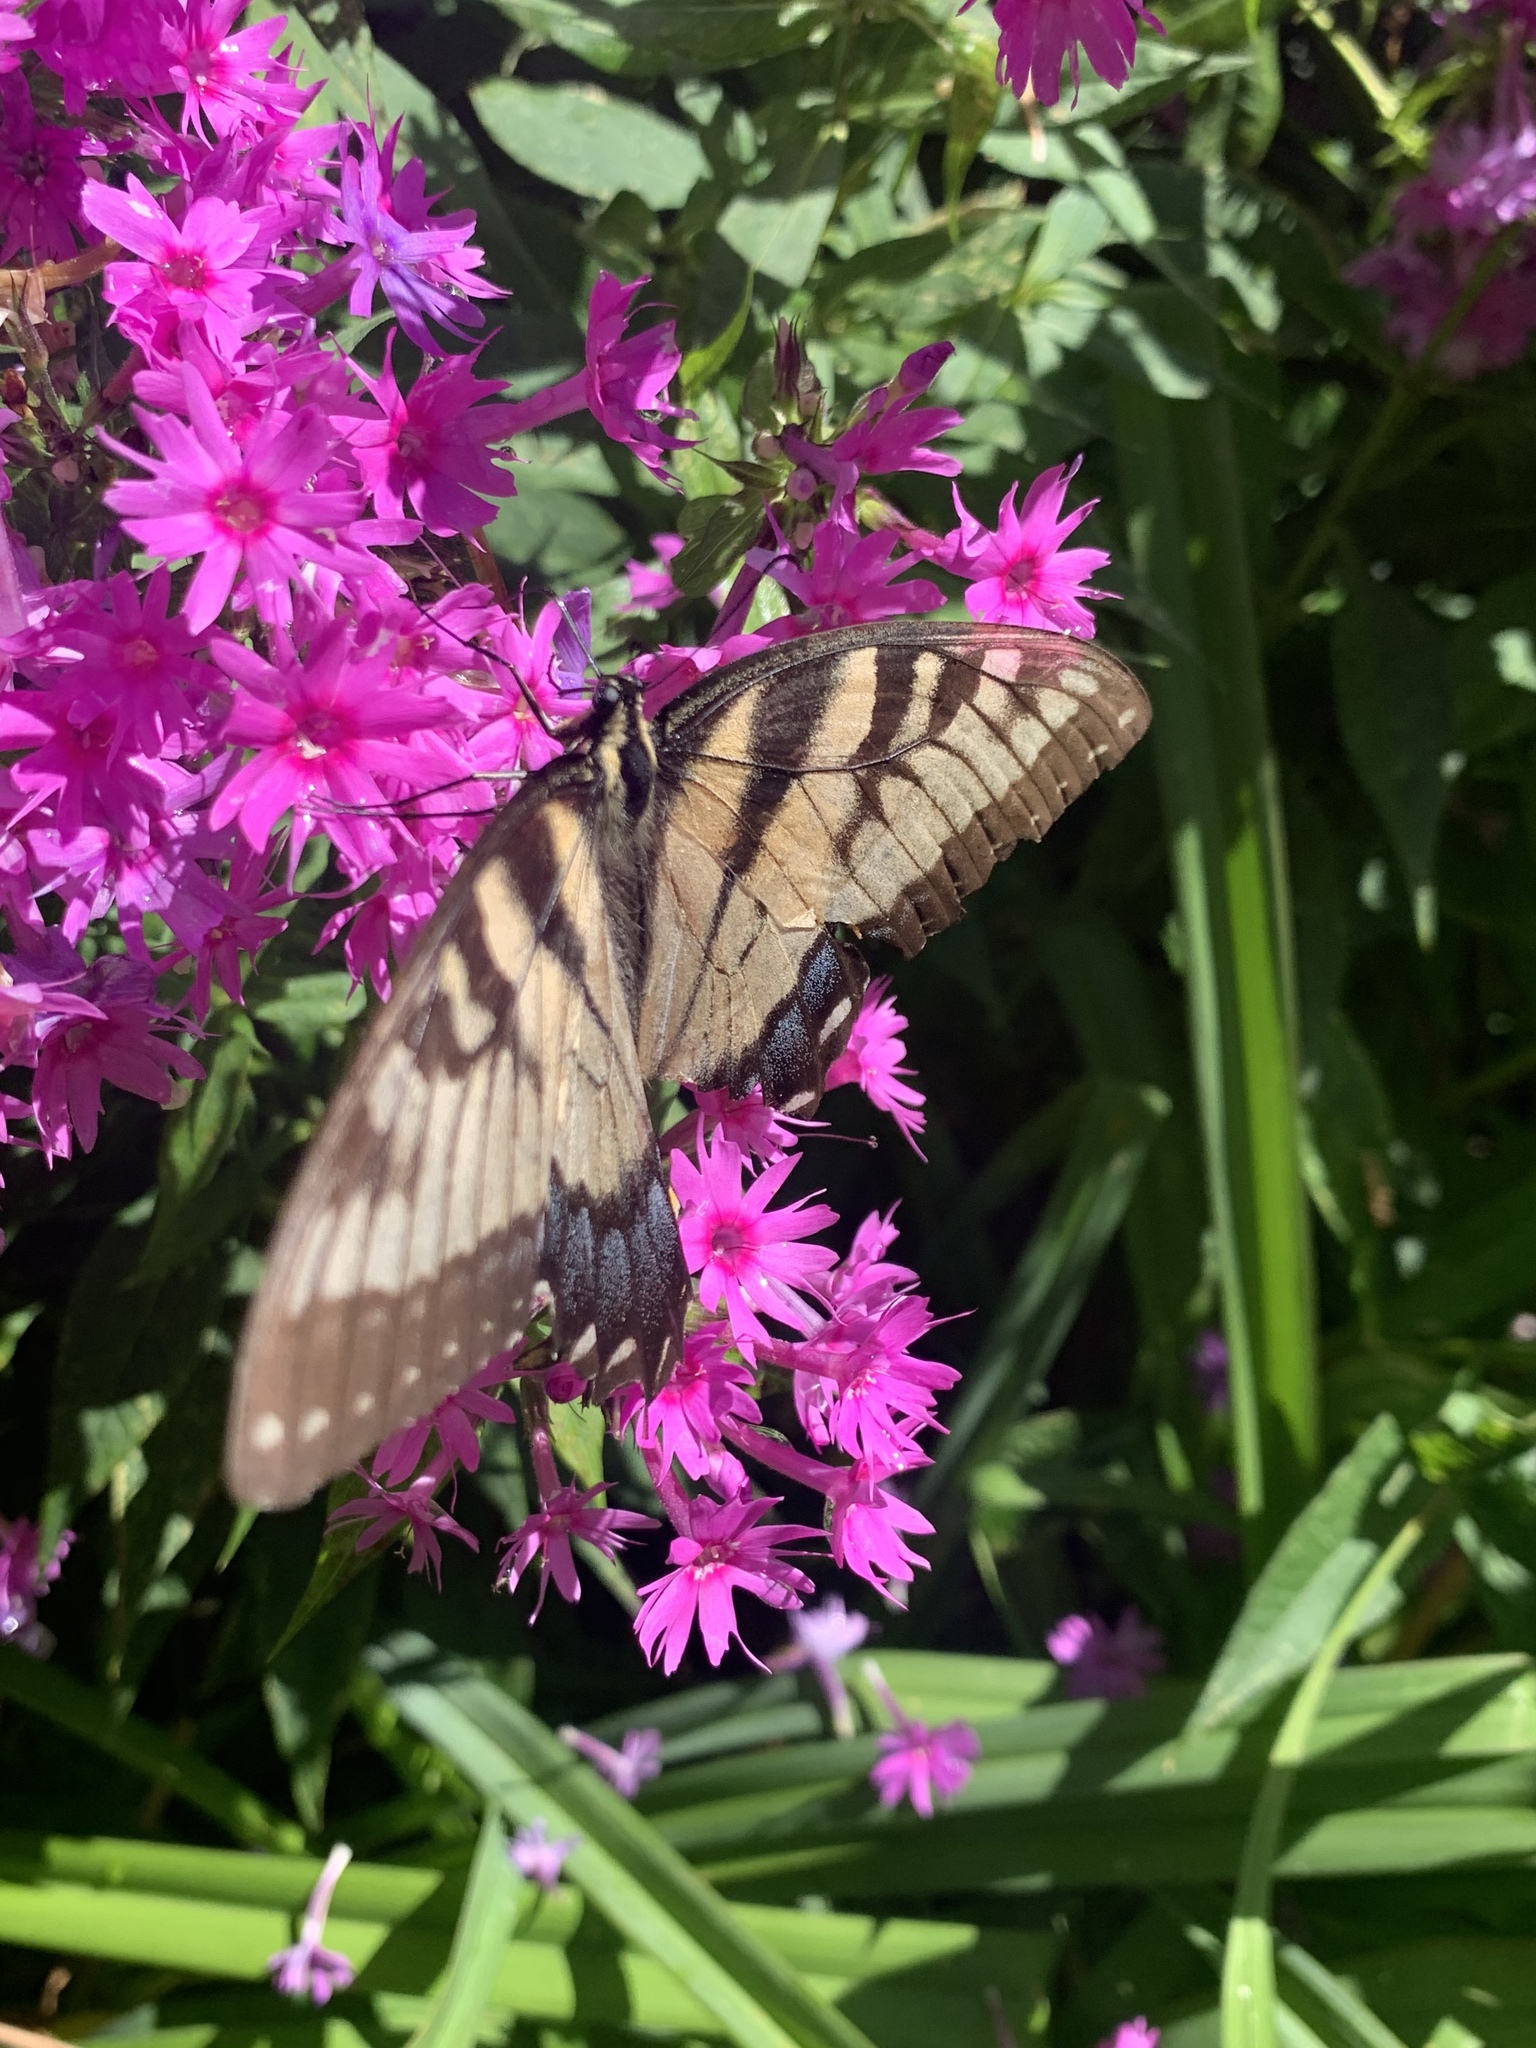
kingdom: Animalia
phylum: Arthropoda
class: Insecta
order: Lepidoptera
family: Papilionidae
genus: Papilio
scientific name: Papilio glaucus
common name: Tiger swallowtail
